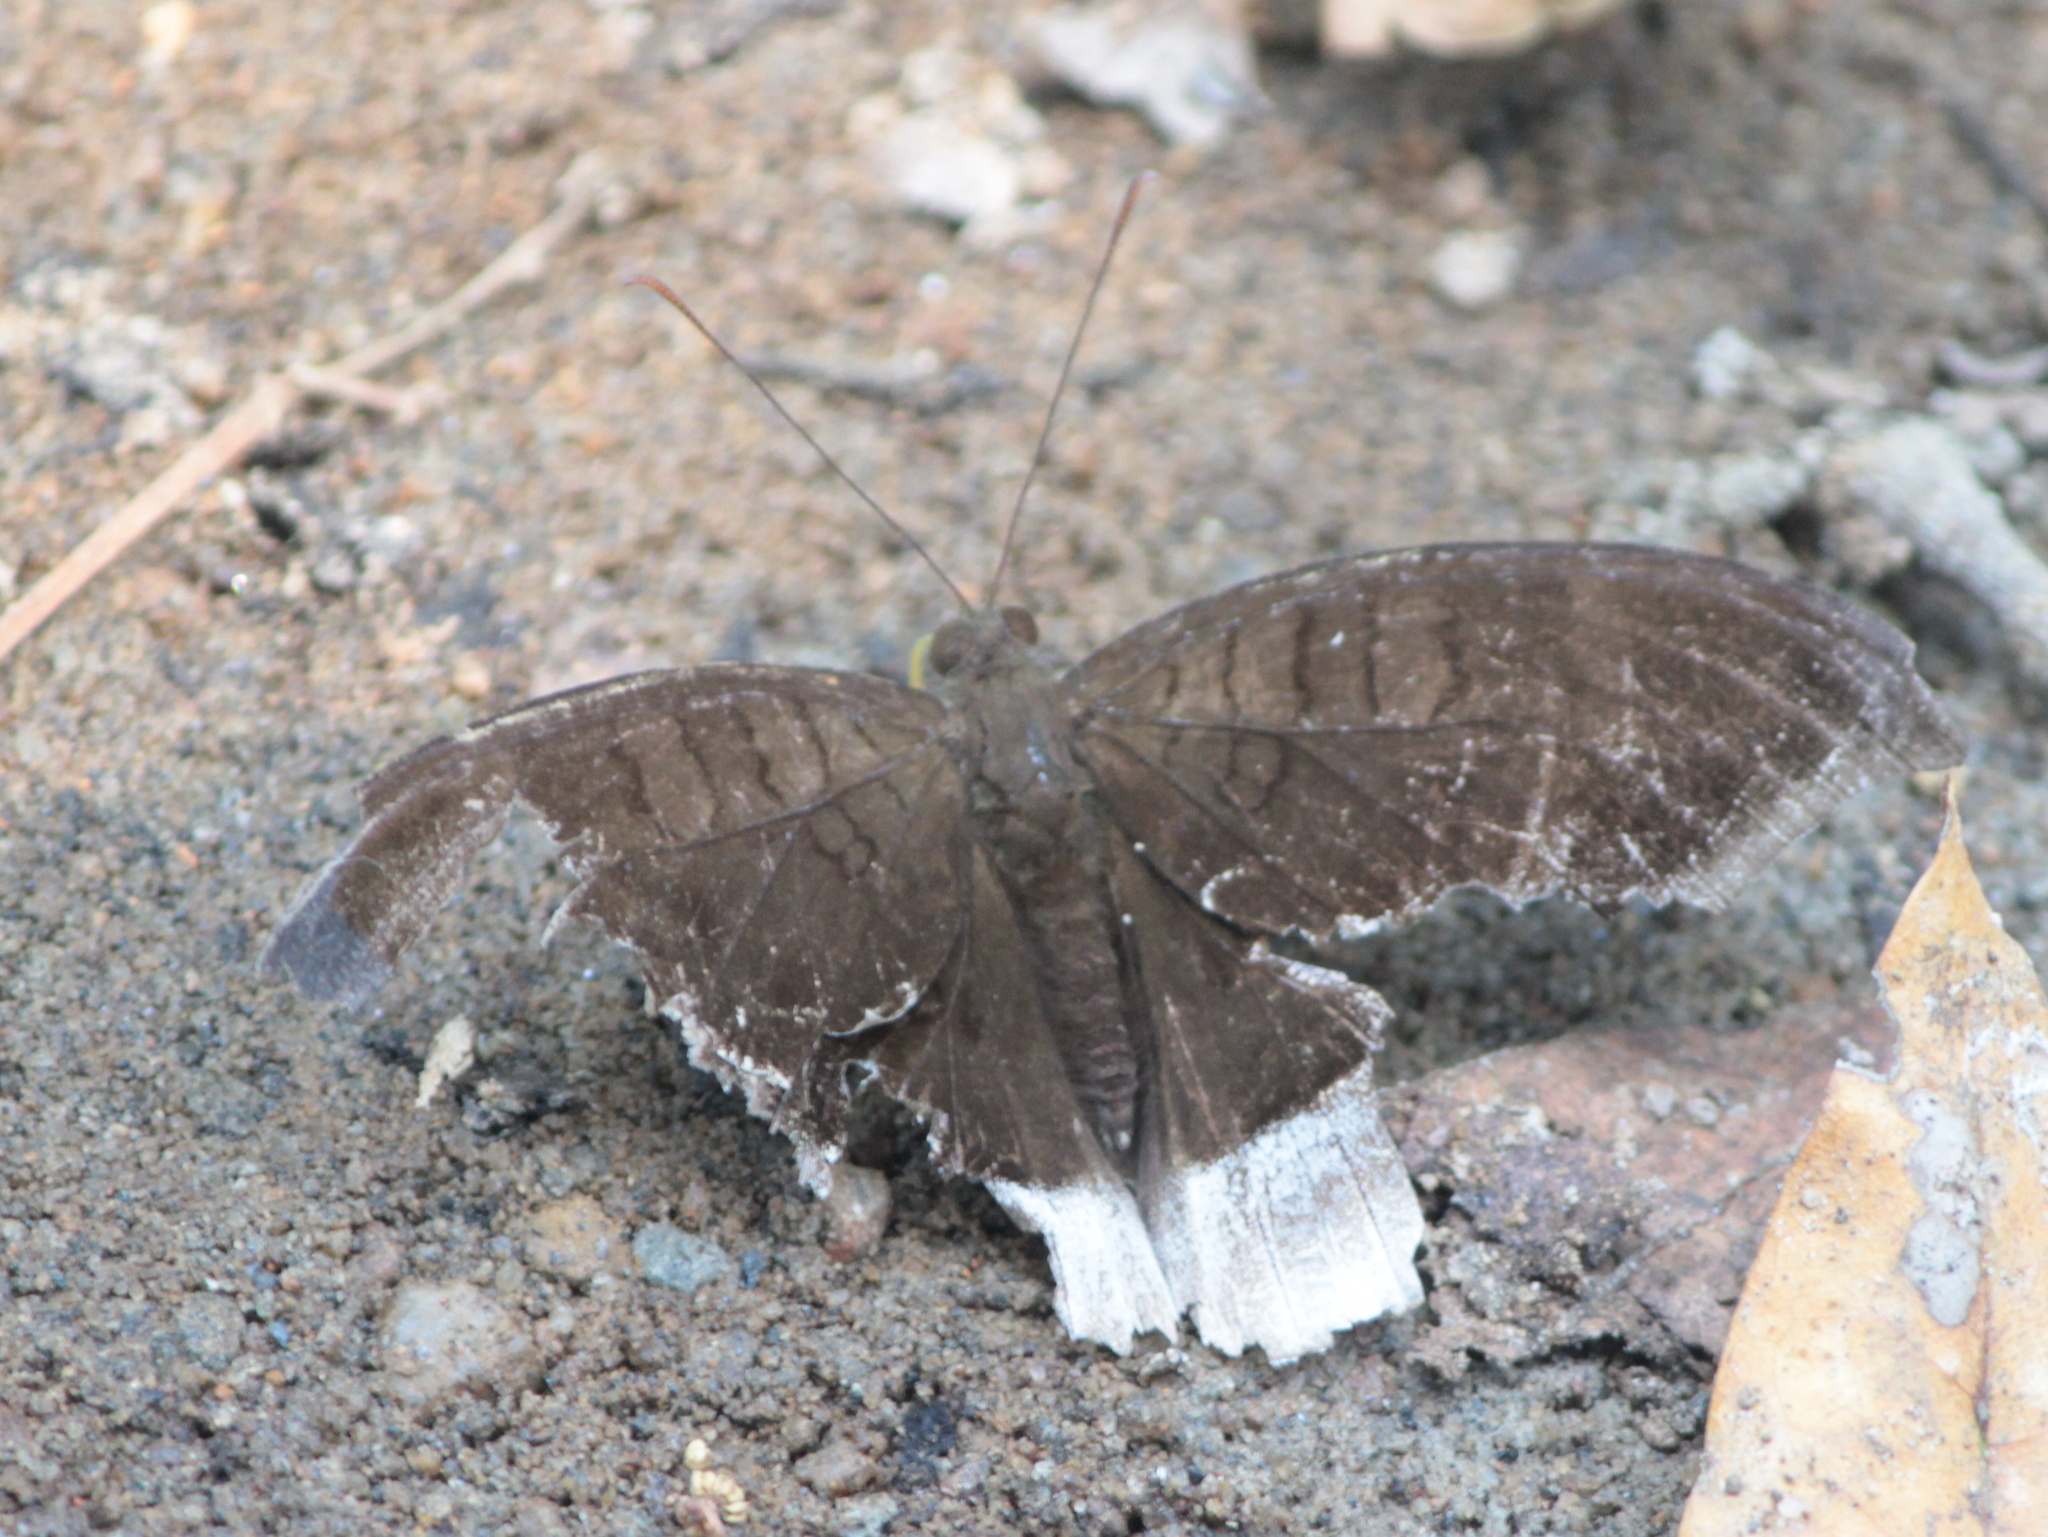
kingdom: Animalia
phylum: Arthropoda
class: Insecta
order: Lepidoptera
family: Nymphalidae
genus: Tanaecia
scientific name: Tanaecia lepidea
